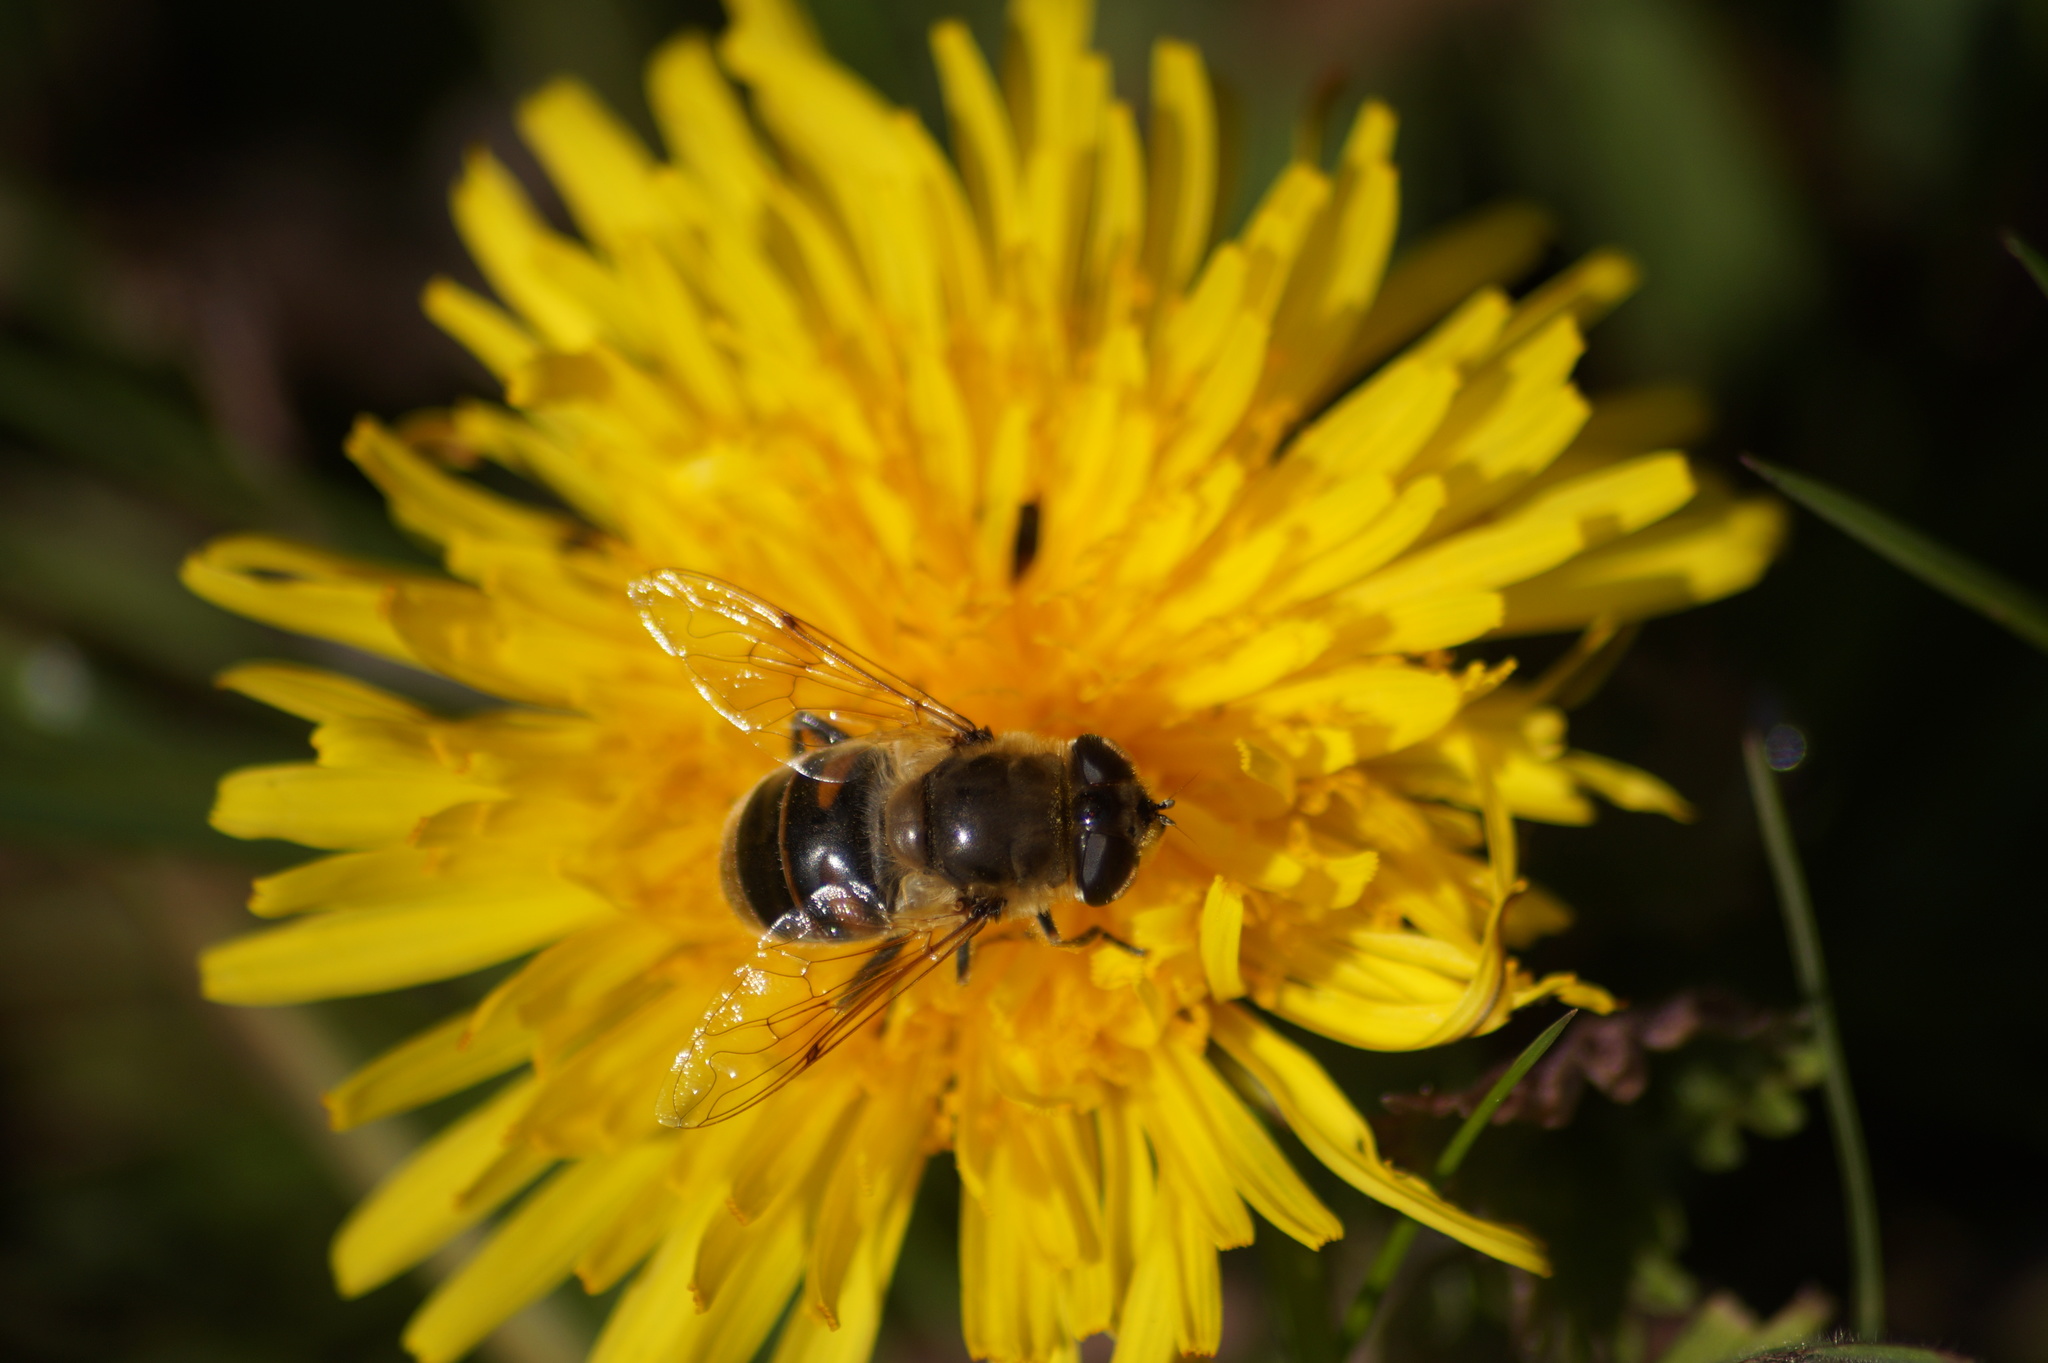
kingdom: Animalia
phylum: Arthropoda
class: Insecta
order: Diptera
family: Syrphidae
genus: Eristalis
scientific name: Eristalis tenax
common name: Drone fly
